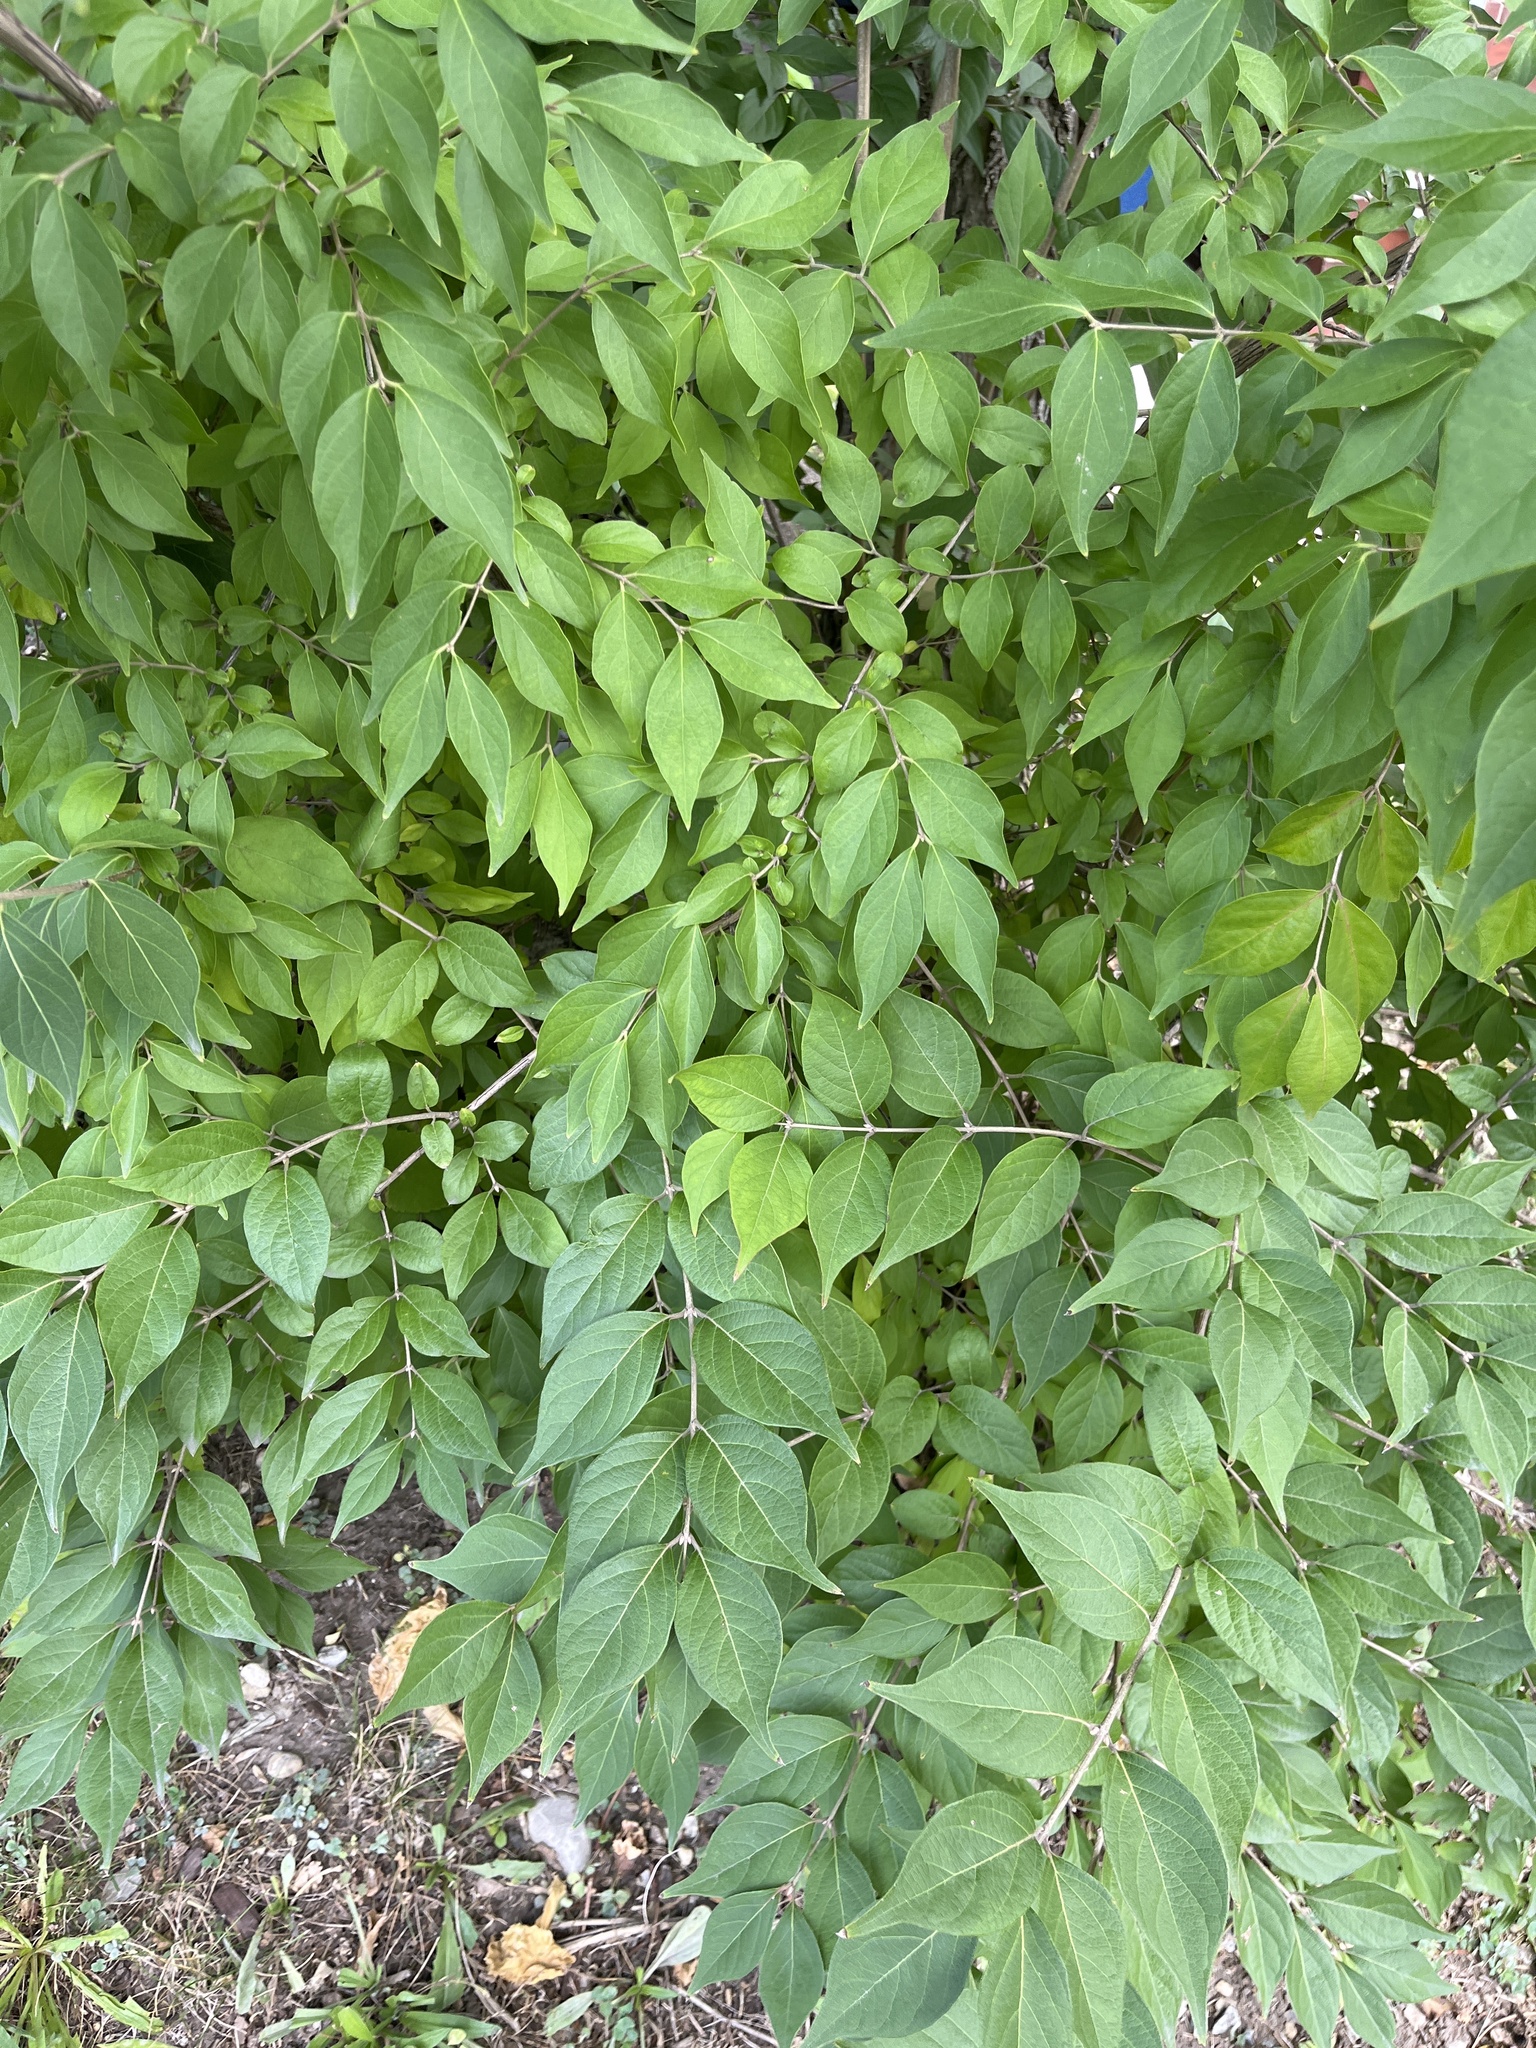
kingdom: Plantae
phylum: Tracheophyta
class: Magnoliopsida
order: Dipsacales
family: Caprifoliaceae
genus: Lonicera
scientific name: Lonicera maackii
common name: Amur honeysuckle
